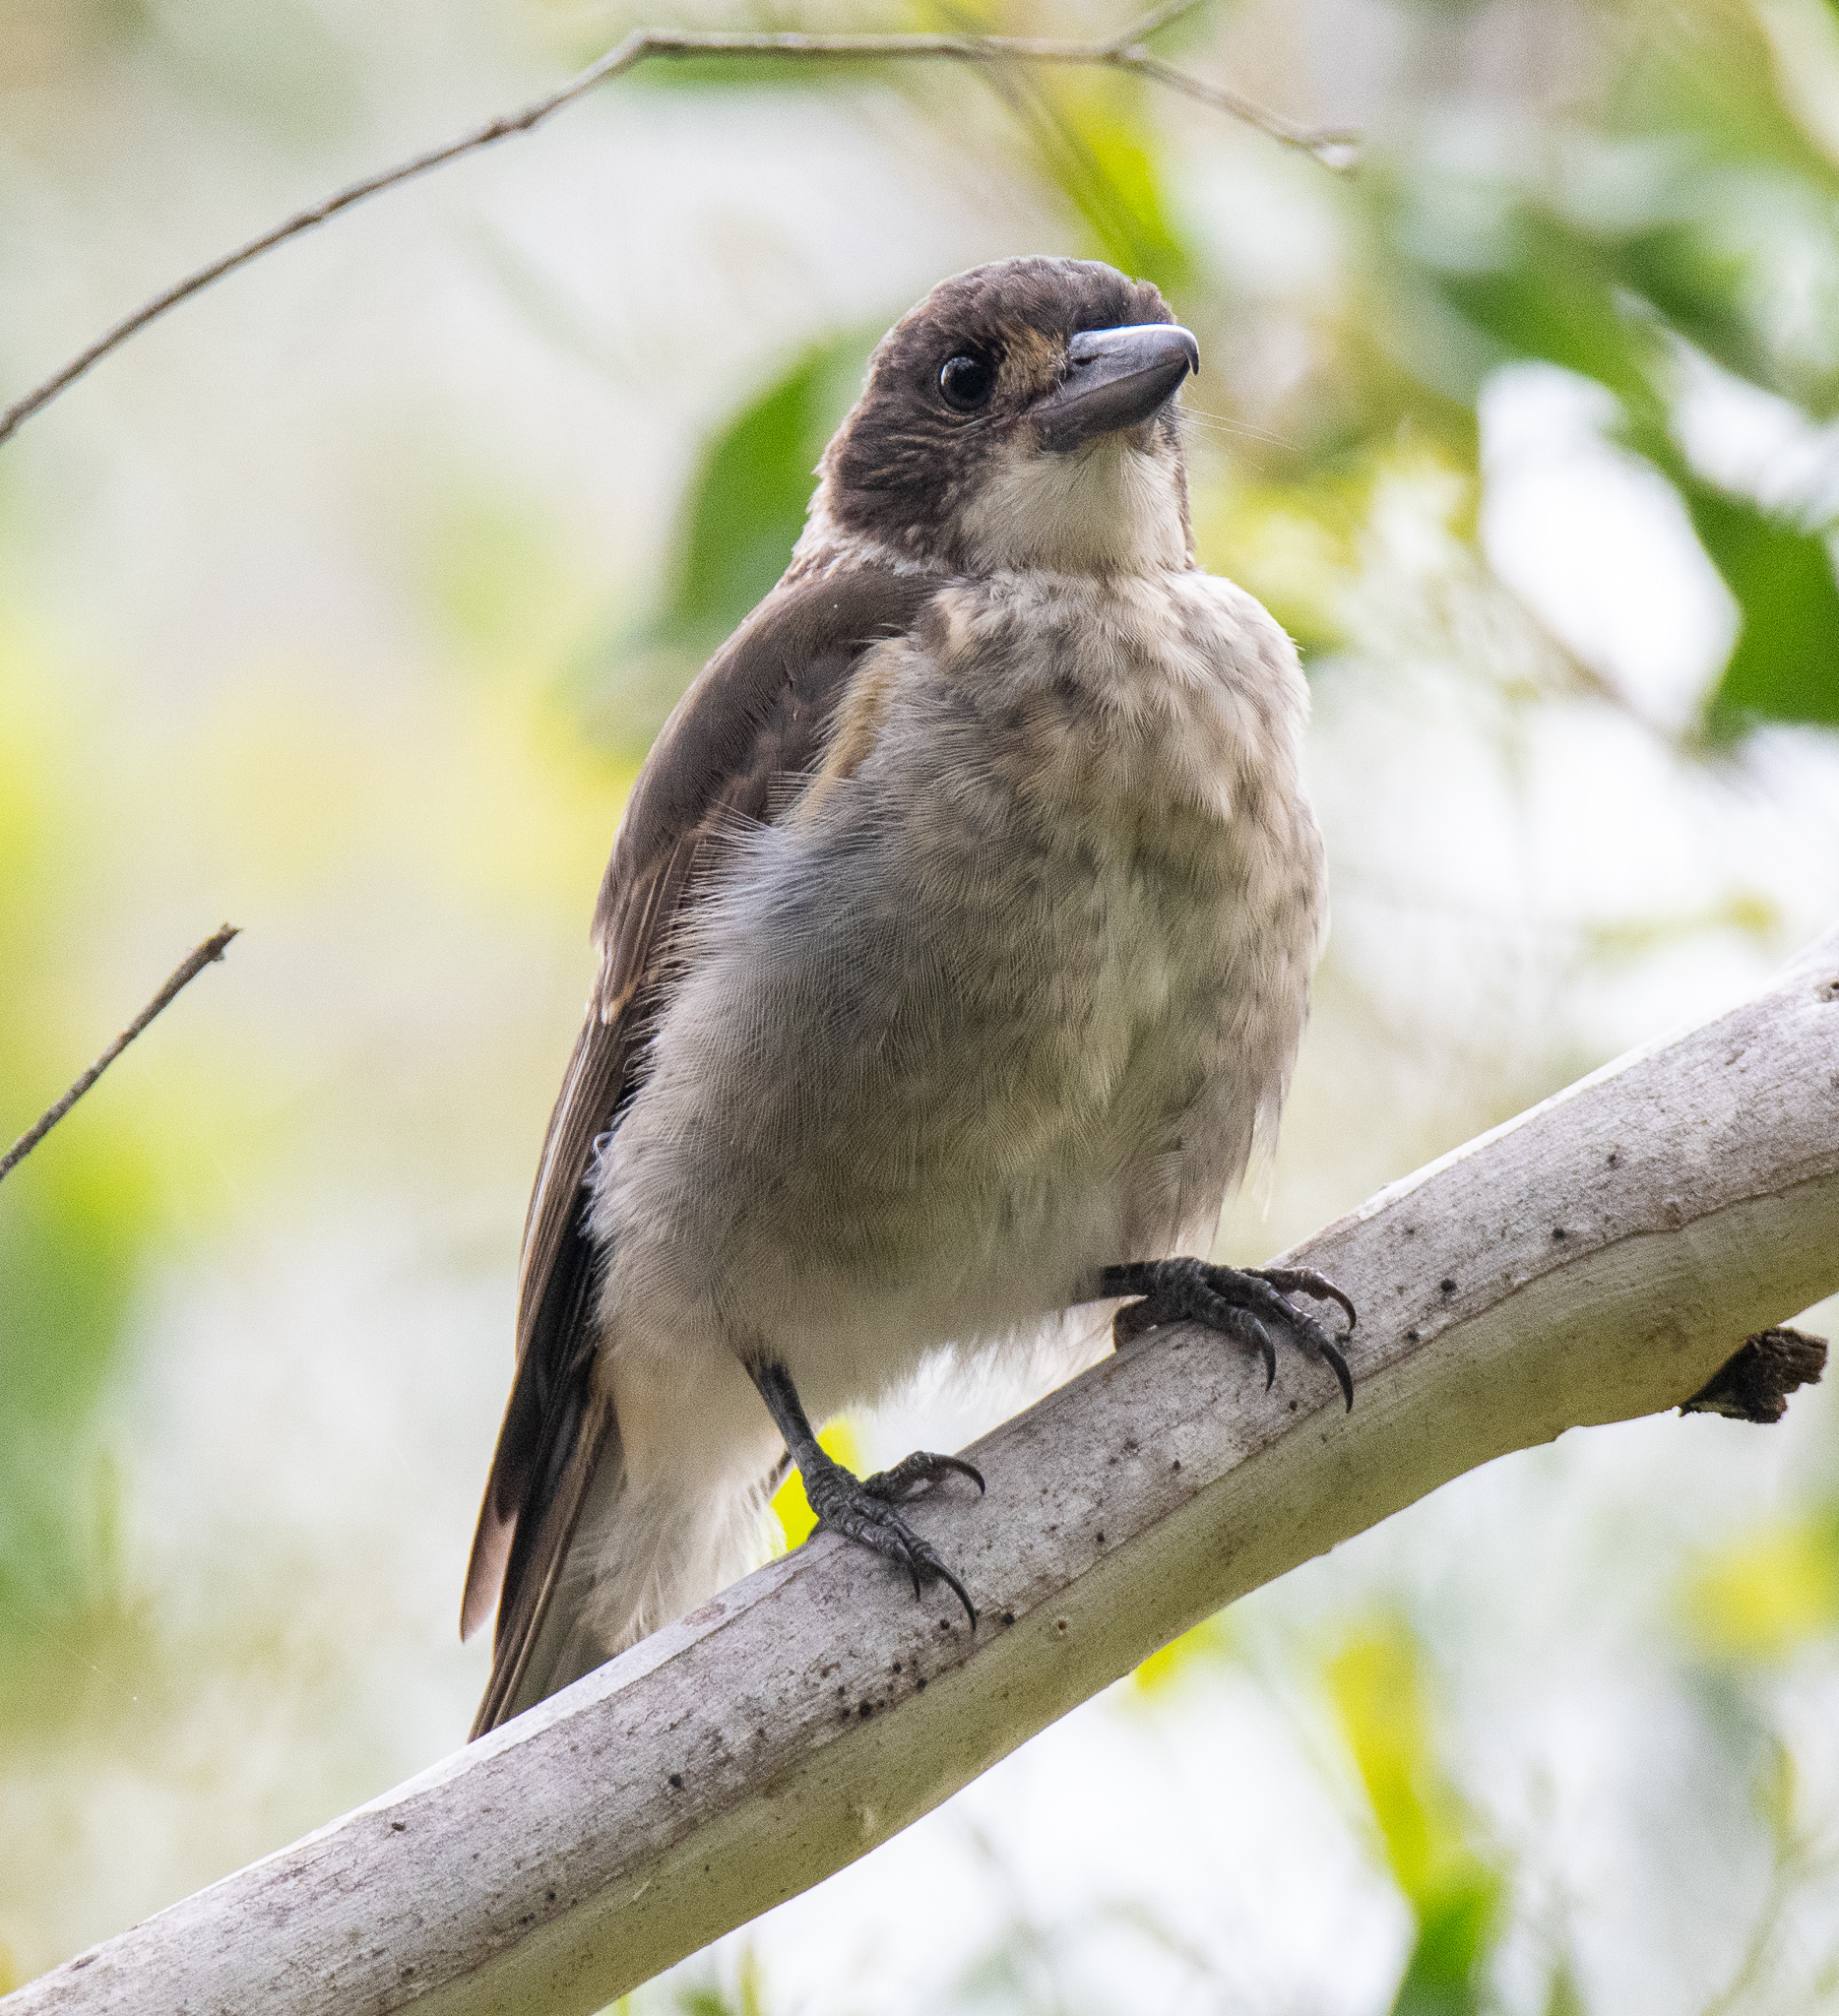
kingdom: Animalia
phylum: Chordata
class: Aves
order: Passeriformes
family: Cracticidae
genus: Cracticus
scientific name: Cracticus torquatus
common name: Grey butcherbird
